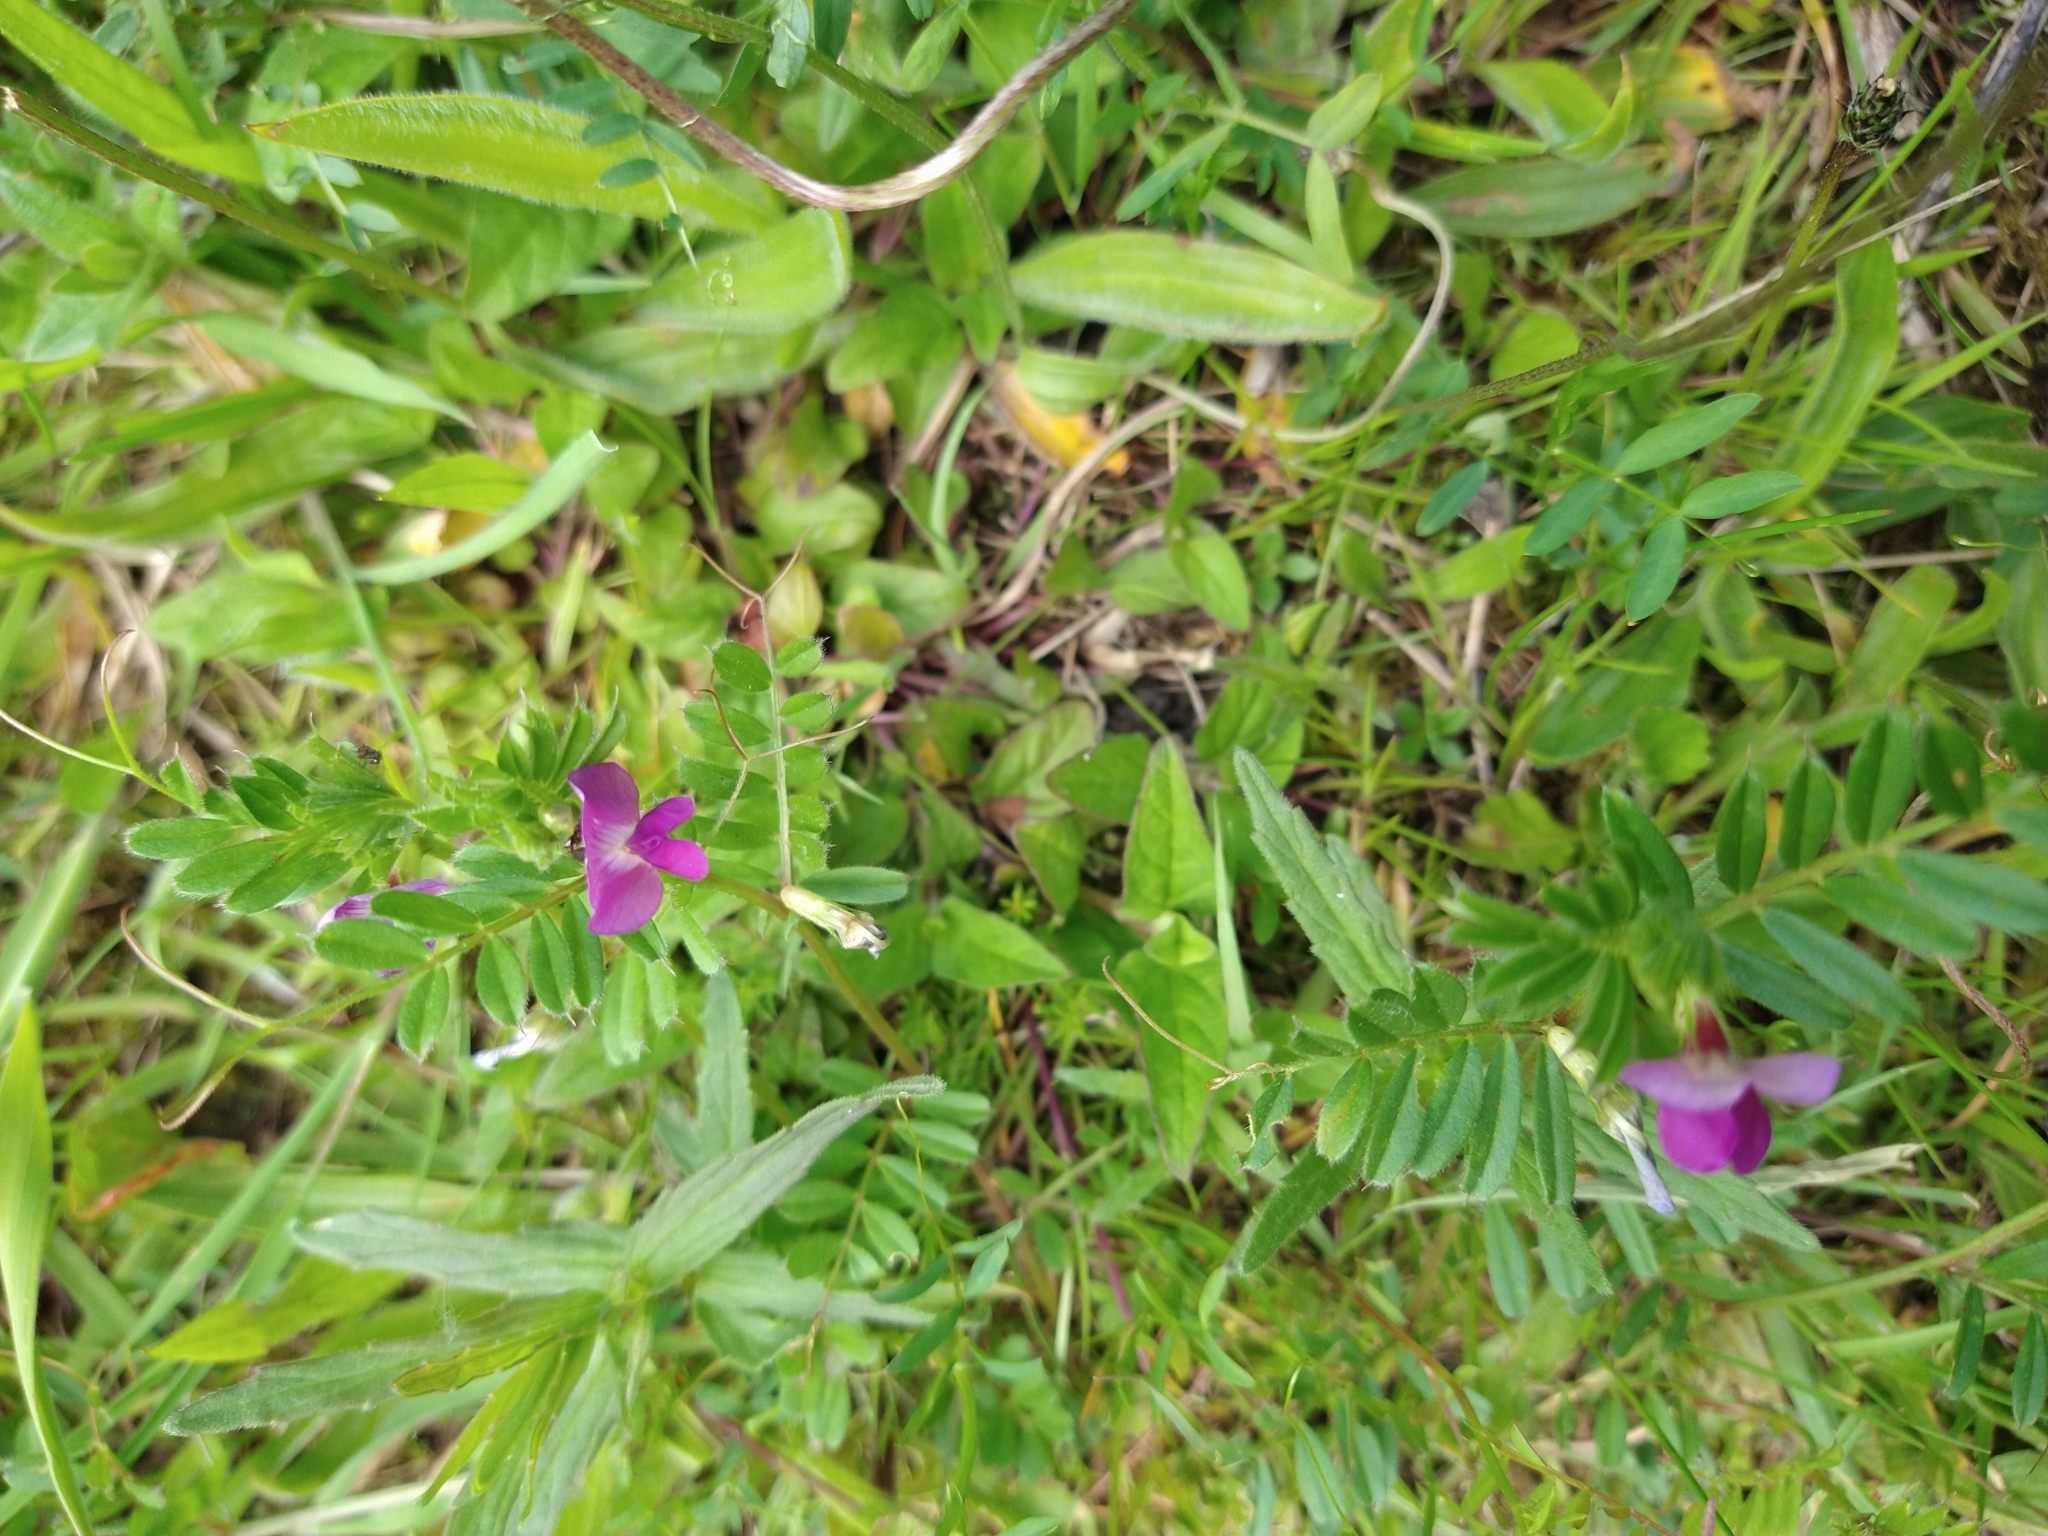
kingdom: Plantae
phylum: Tracheophyta
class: Magnoliopsida
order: Fabales
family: Fabaceae
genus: Vicia
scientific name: Vicia sativa
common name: Garden vetch
